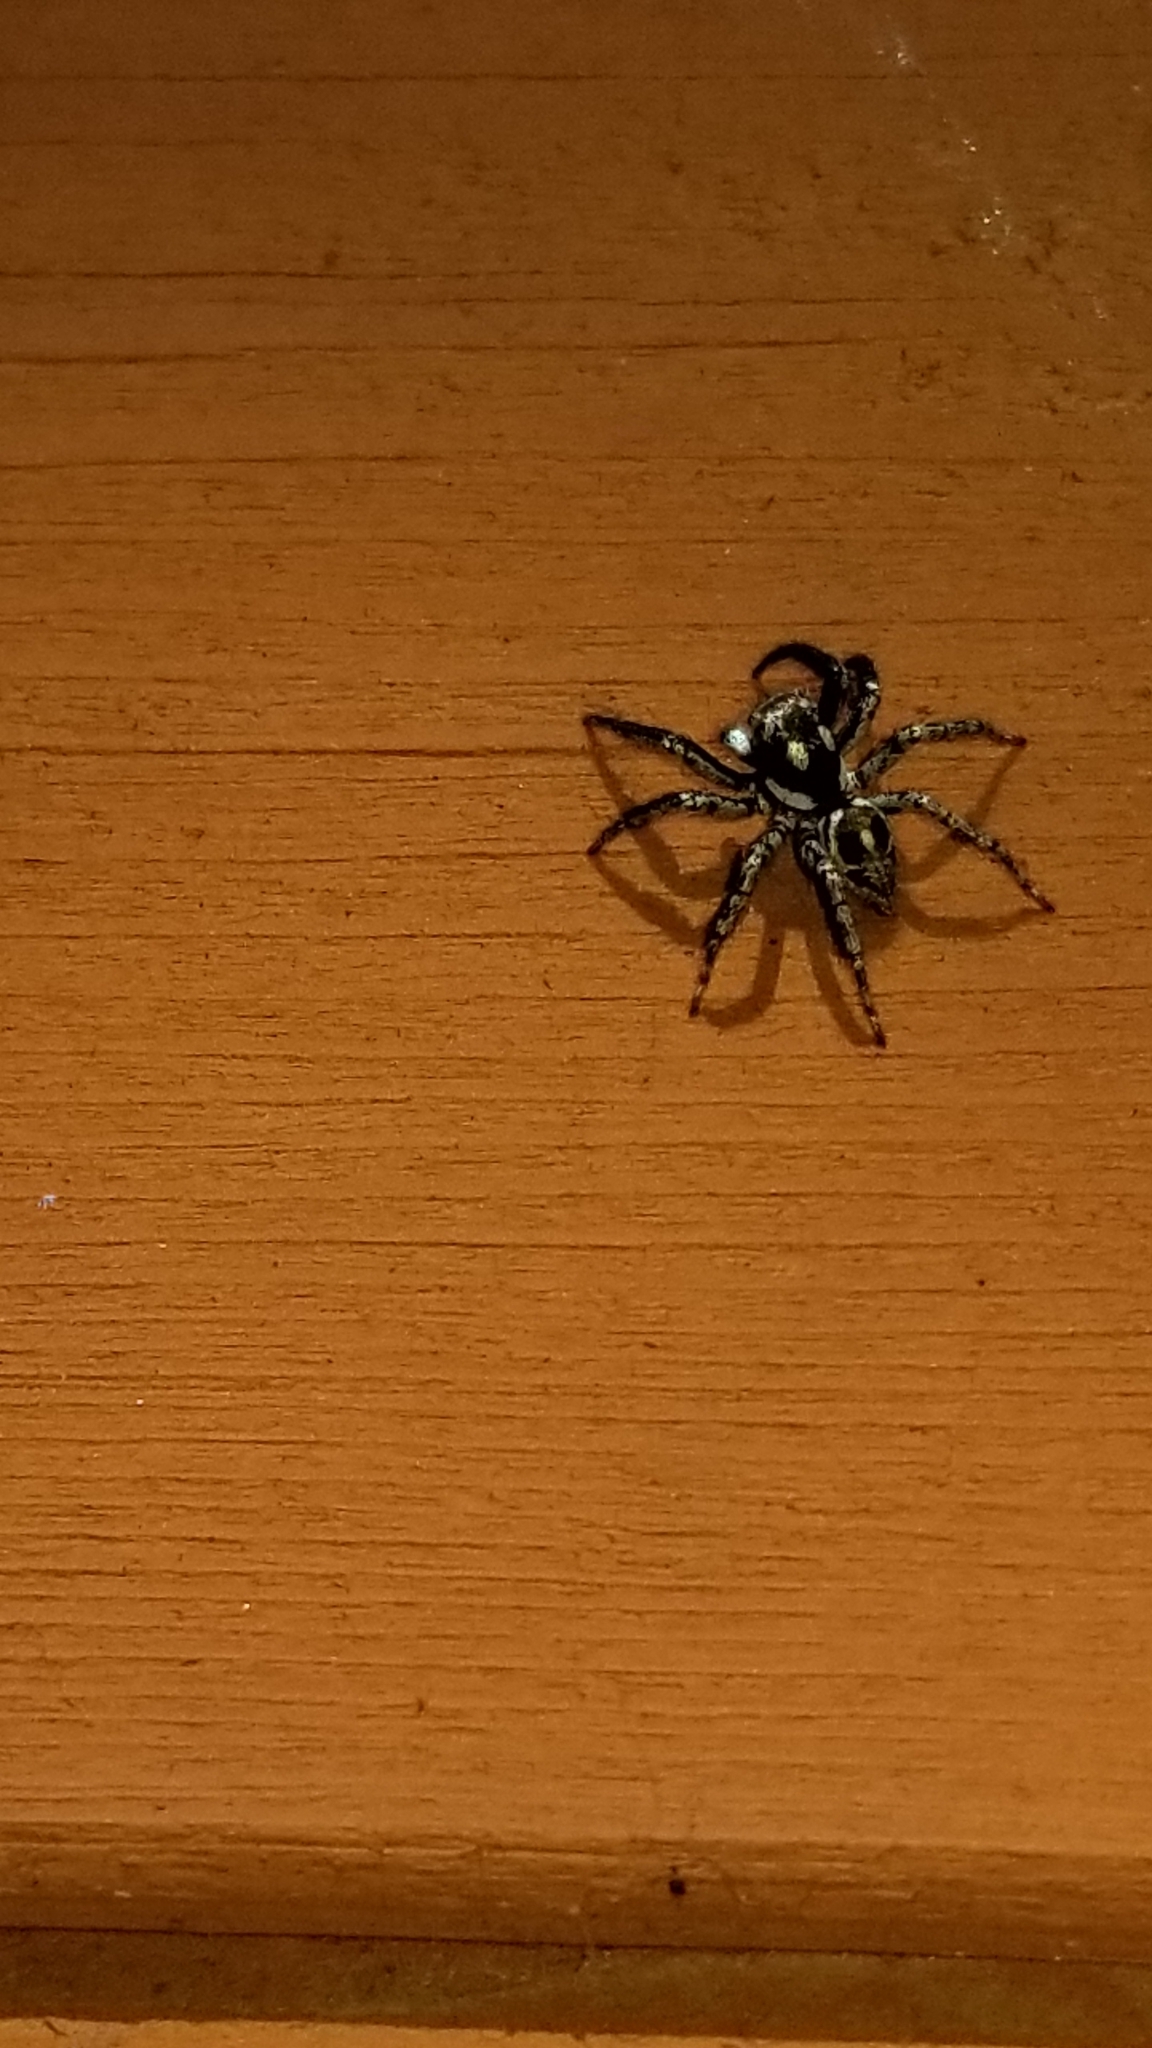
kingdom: Animalia
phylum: Arthropoda
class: Arachnida
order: Araneae
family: Salticidae
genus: Anasaitis
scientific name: Anasaitis canosa
